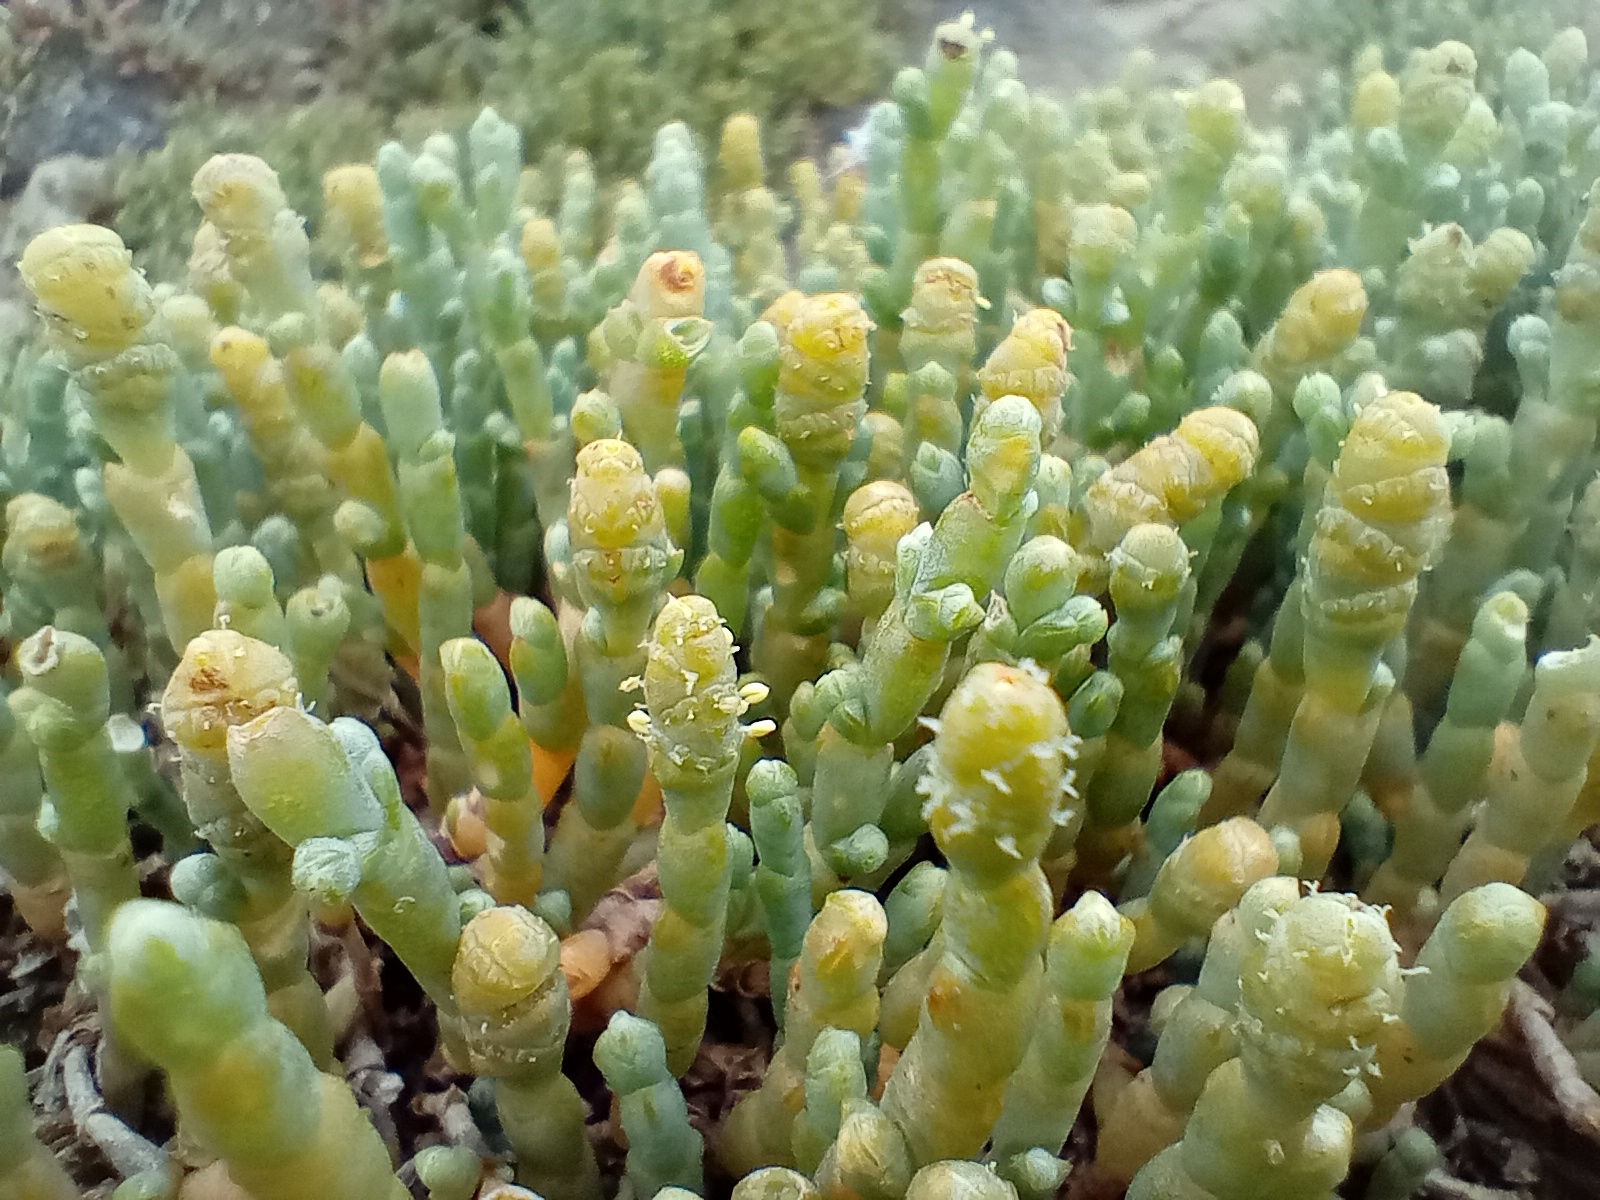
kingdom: Plantae
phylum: Tracheophyta
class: Magnoliopsida
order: Caryophyllales
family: Amaranthaceae
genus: Salicornia
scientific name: Salicornia quinqueflora
